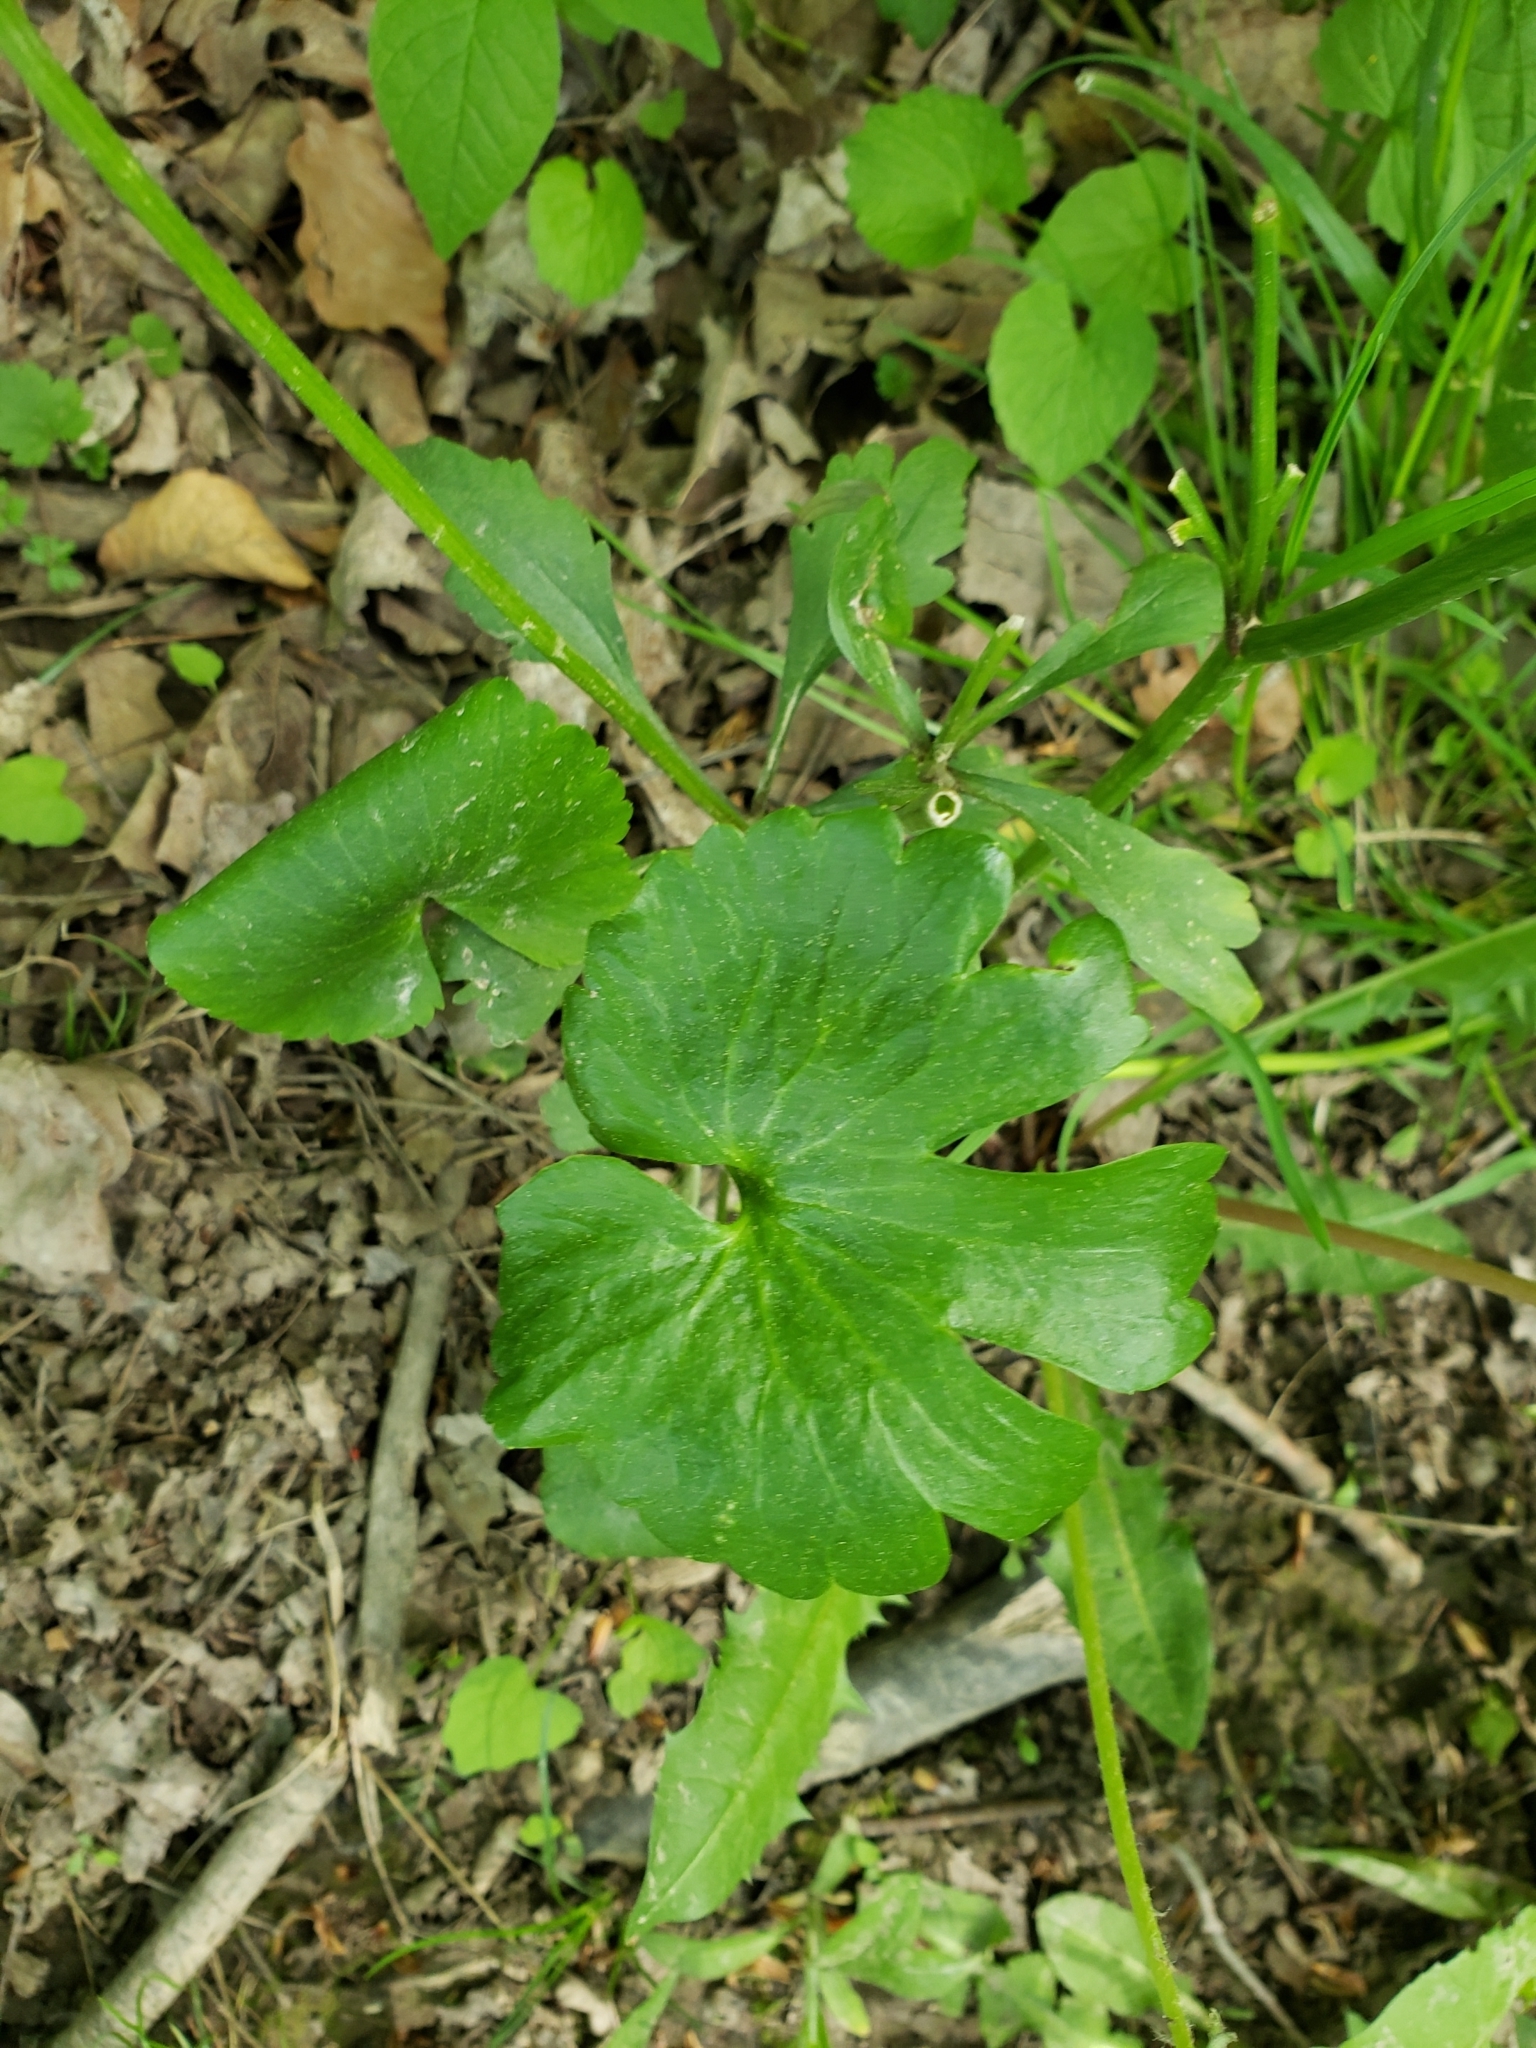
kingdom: Plantae
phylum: Tracheophyta
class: Magnoliopsida
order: Ranunculales
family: Ranunculaceae
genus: Ranunculus
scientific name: Ranunculus abortivus
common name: Early wood buttercup
